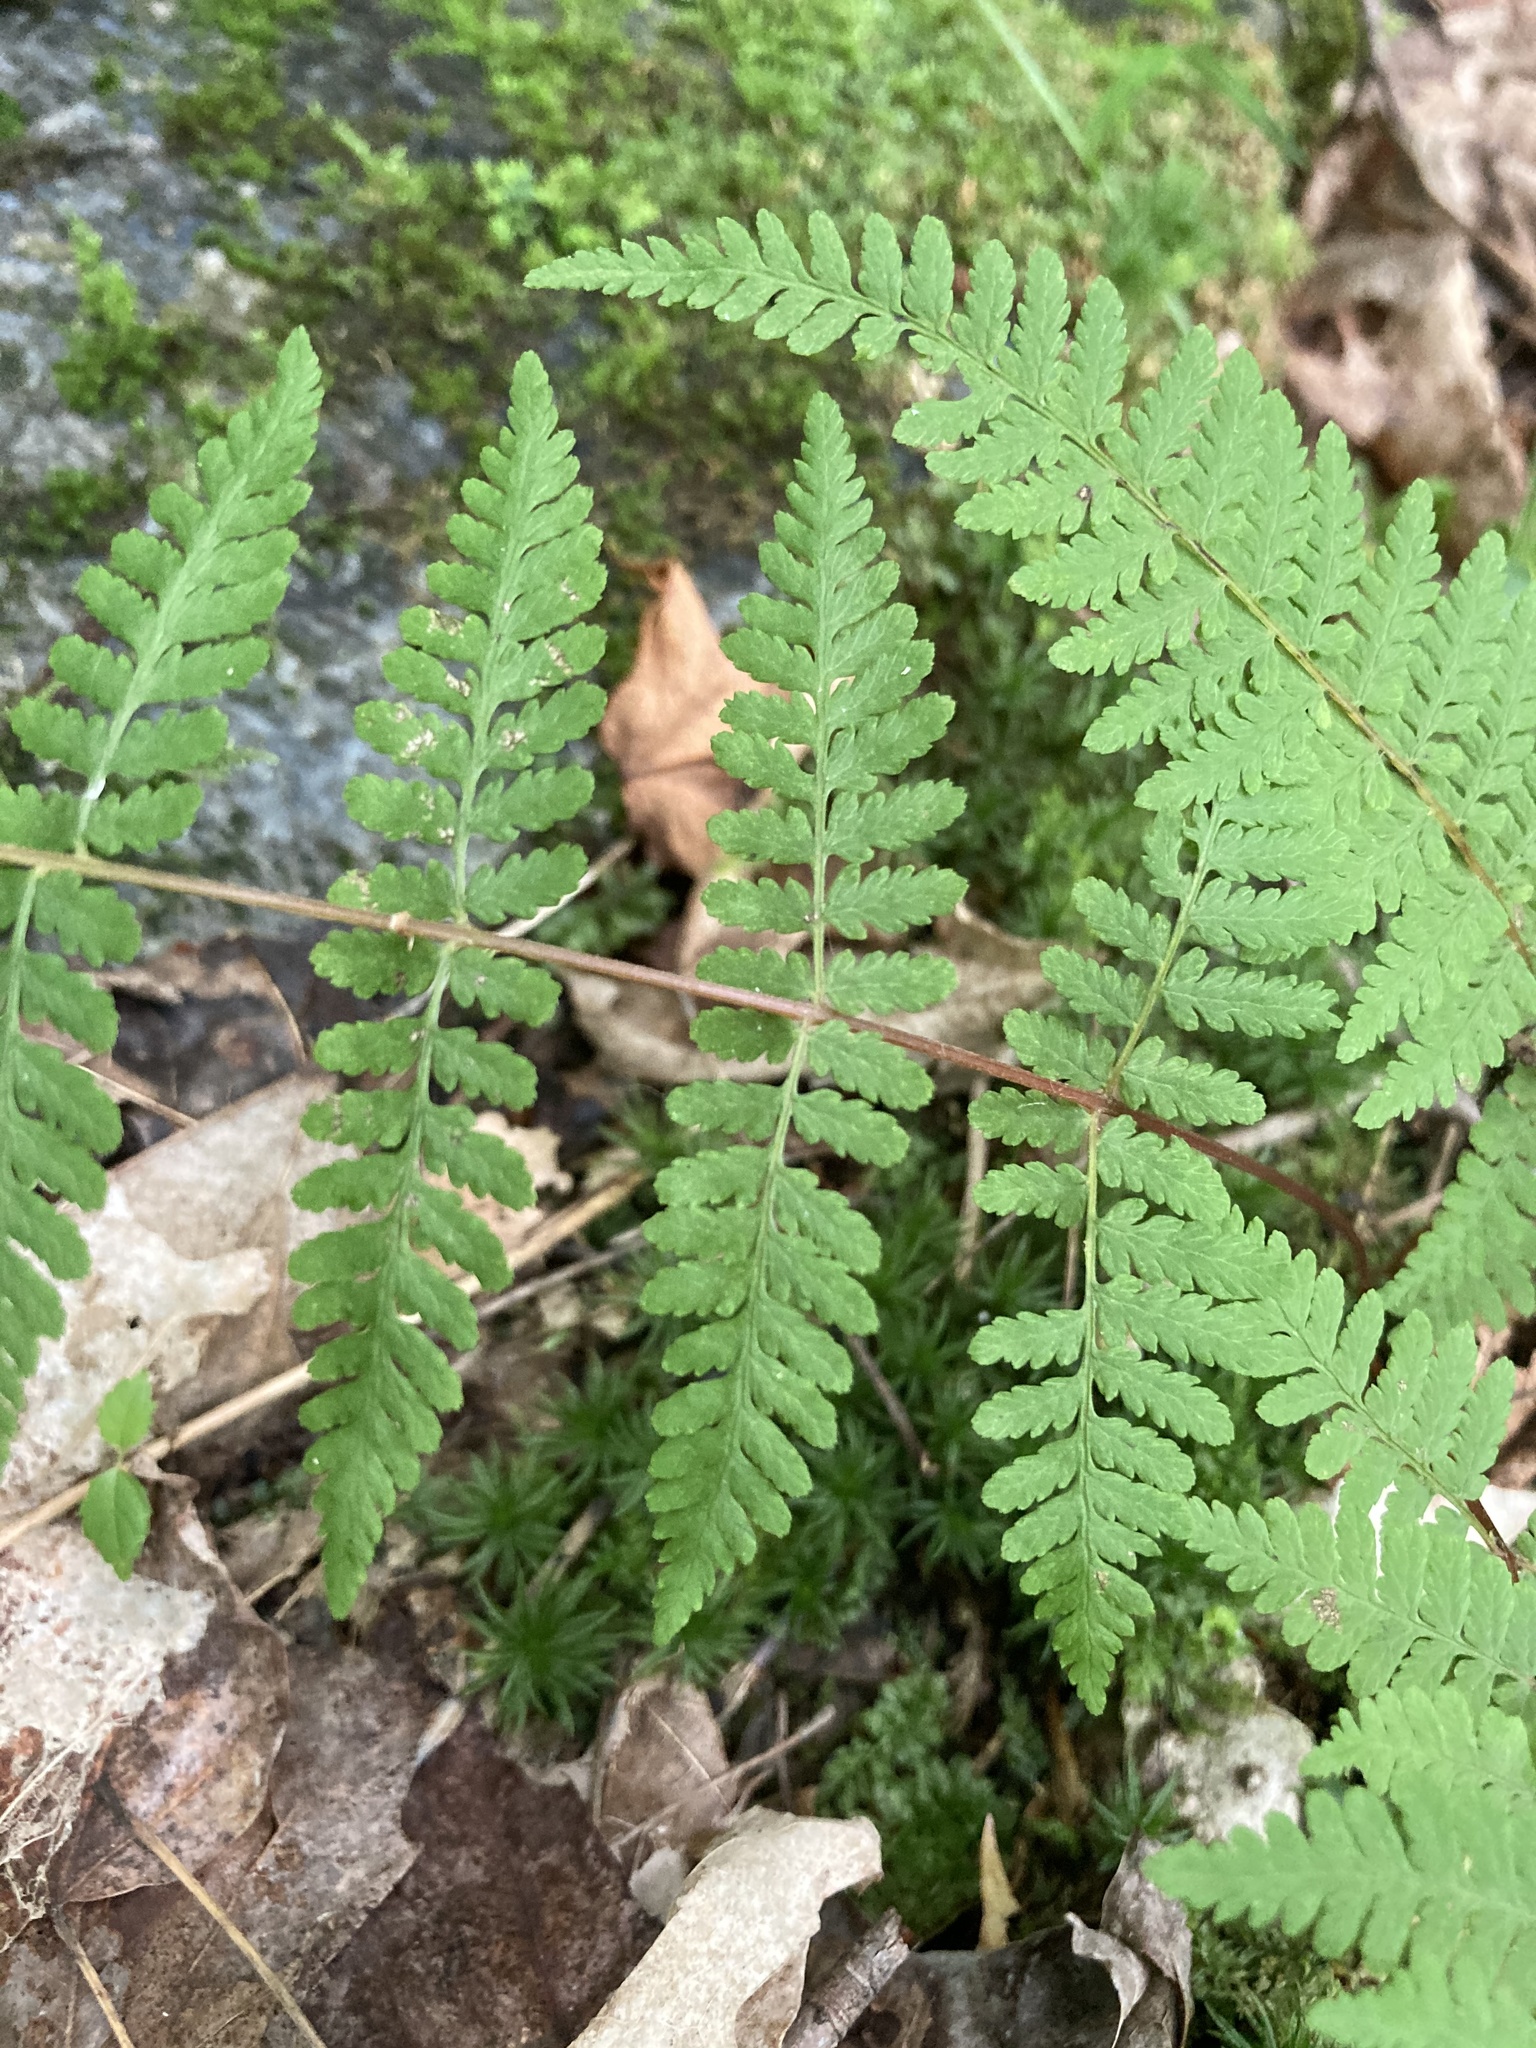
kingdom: Plantae
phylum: Tracheophyta
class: Polypodiopsida
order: Polypodiales
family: Cystopteridaceae
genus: Cystopteris
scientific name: Cystopteris bulbifera
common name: Bulblet bladder fern
